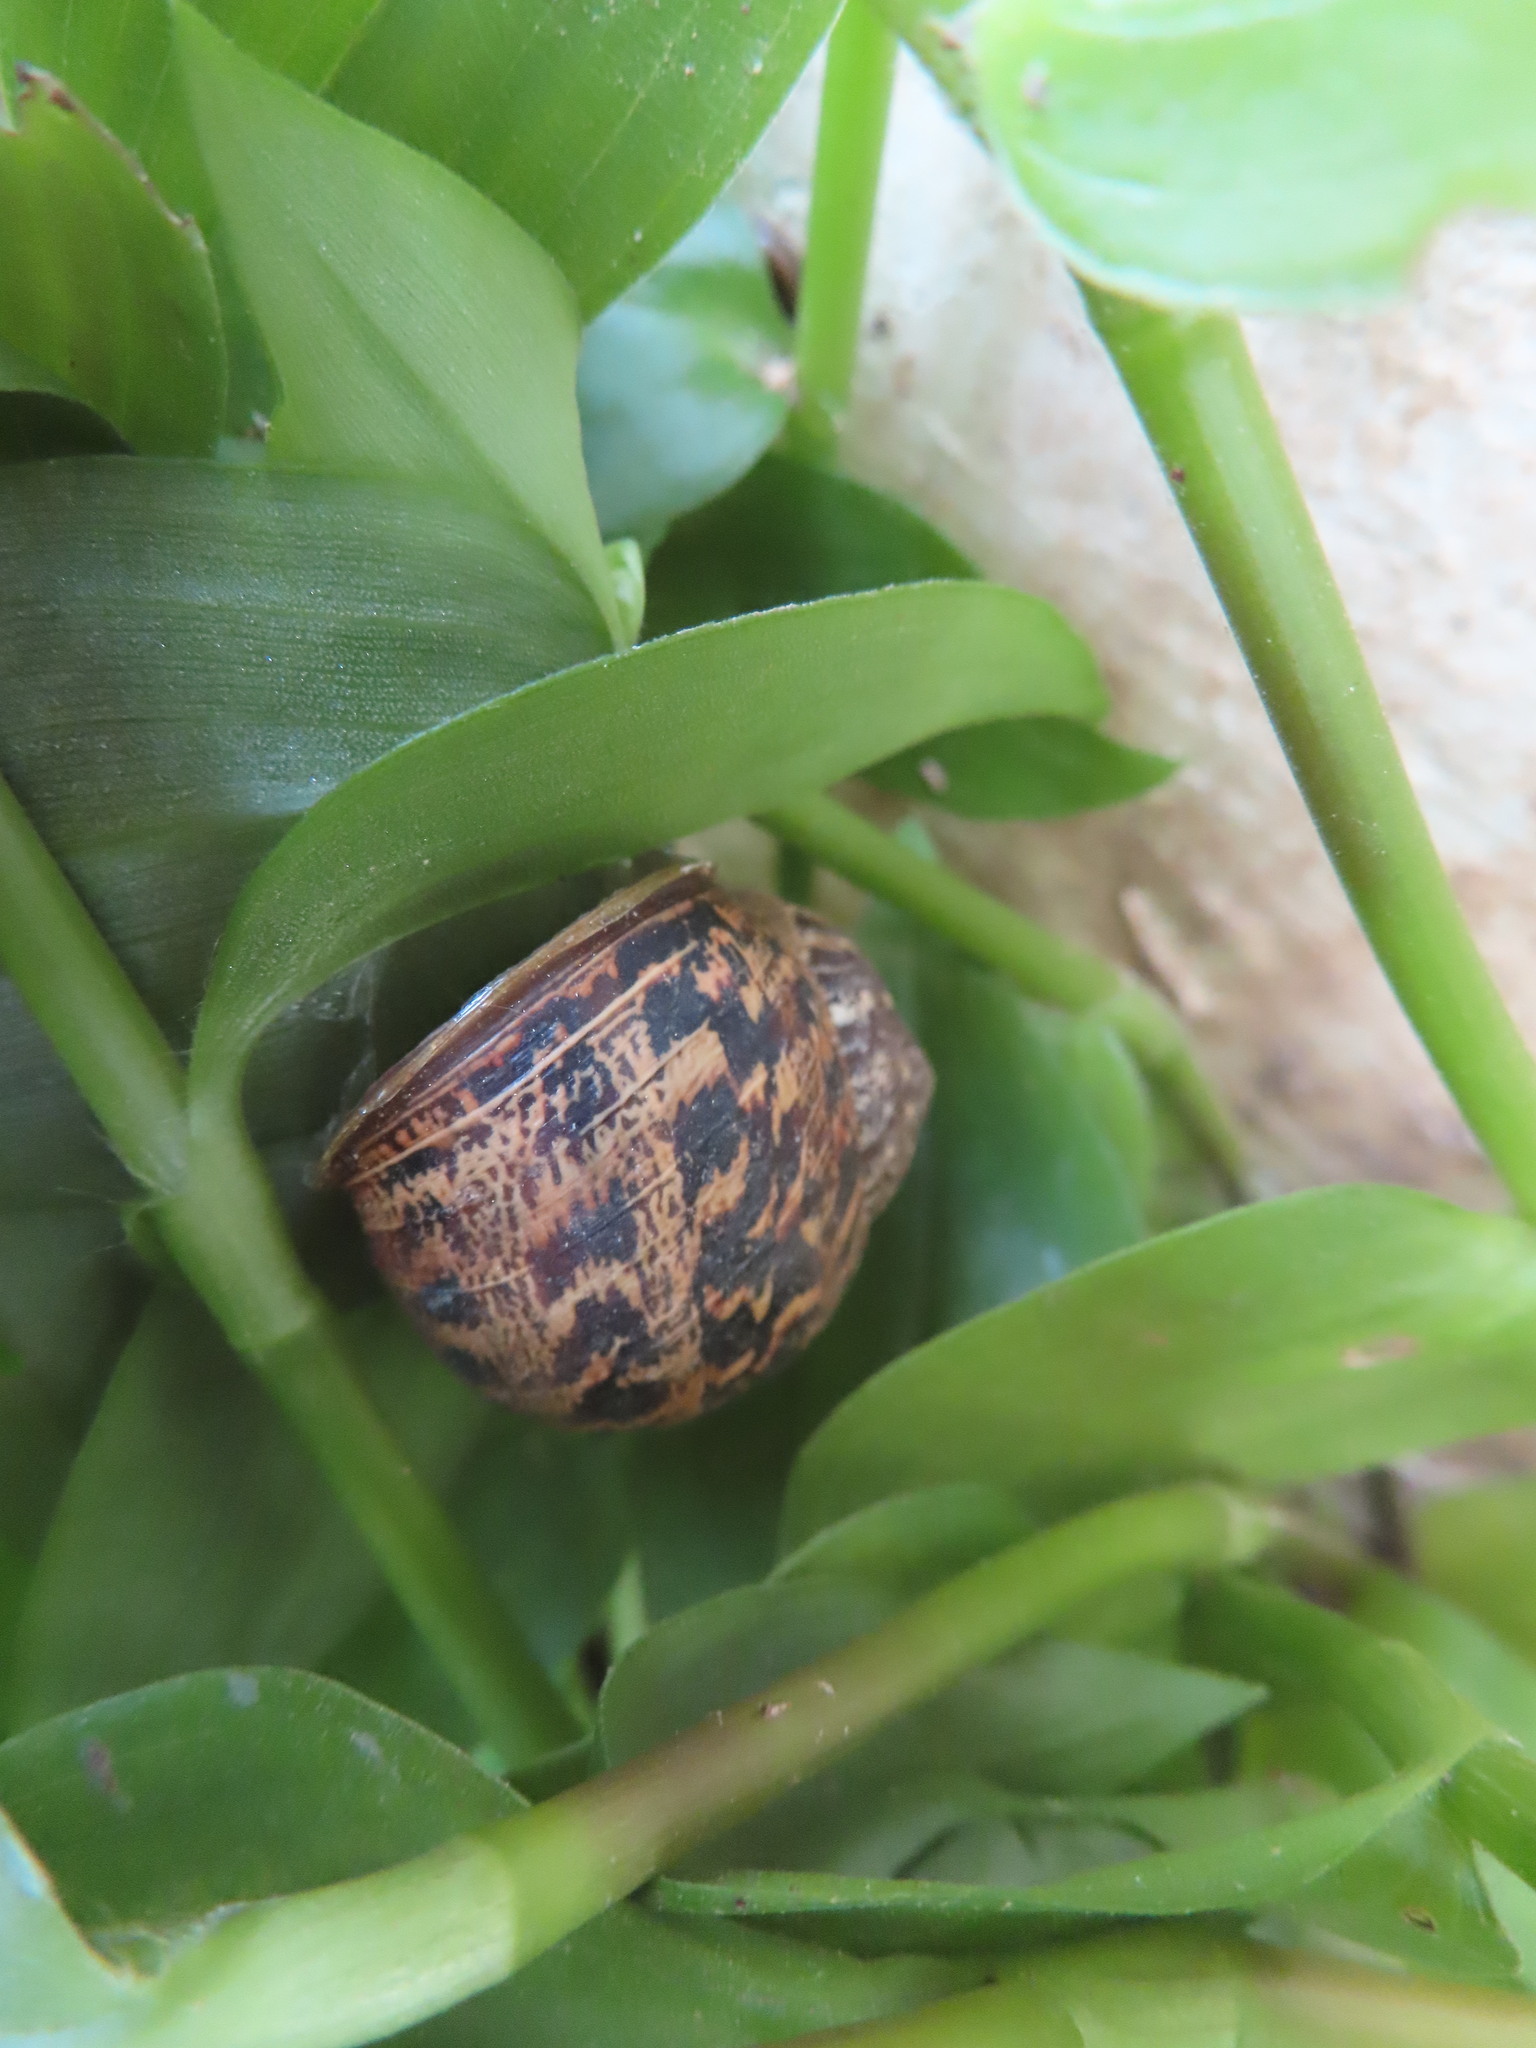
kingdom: Animalia
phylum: Mollusca
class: Gastropoda
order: Stylommatophora
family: Helicidae
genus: Cornu
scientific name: Cornu aspersum
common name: Brown garden snail
